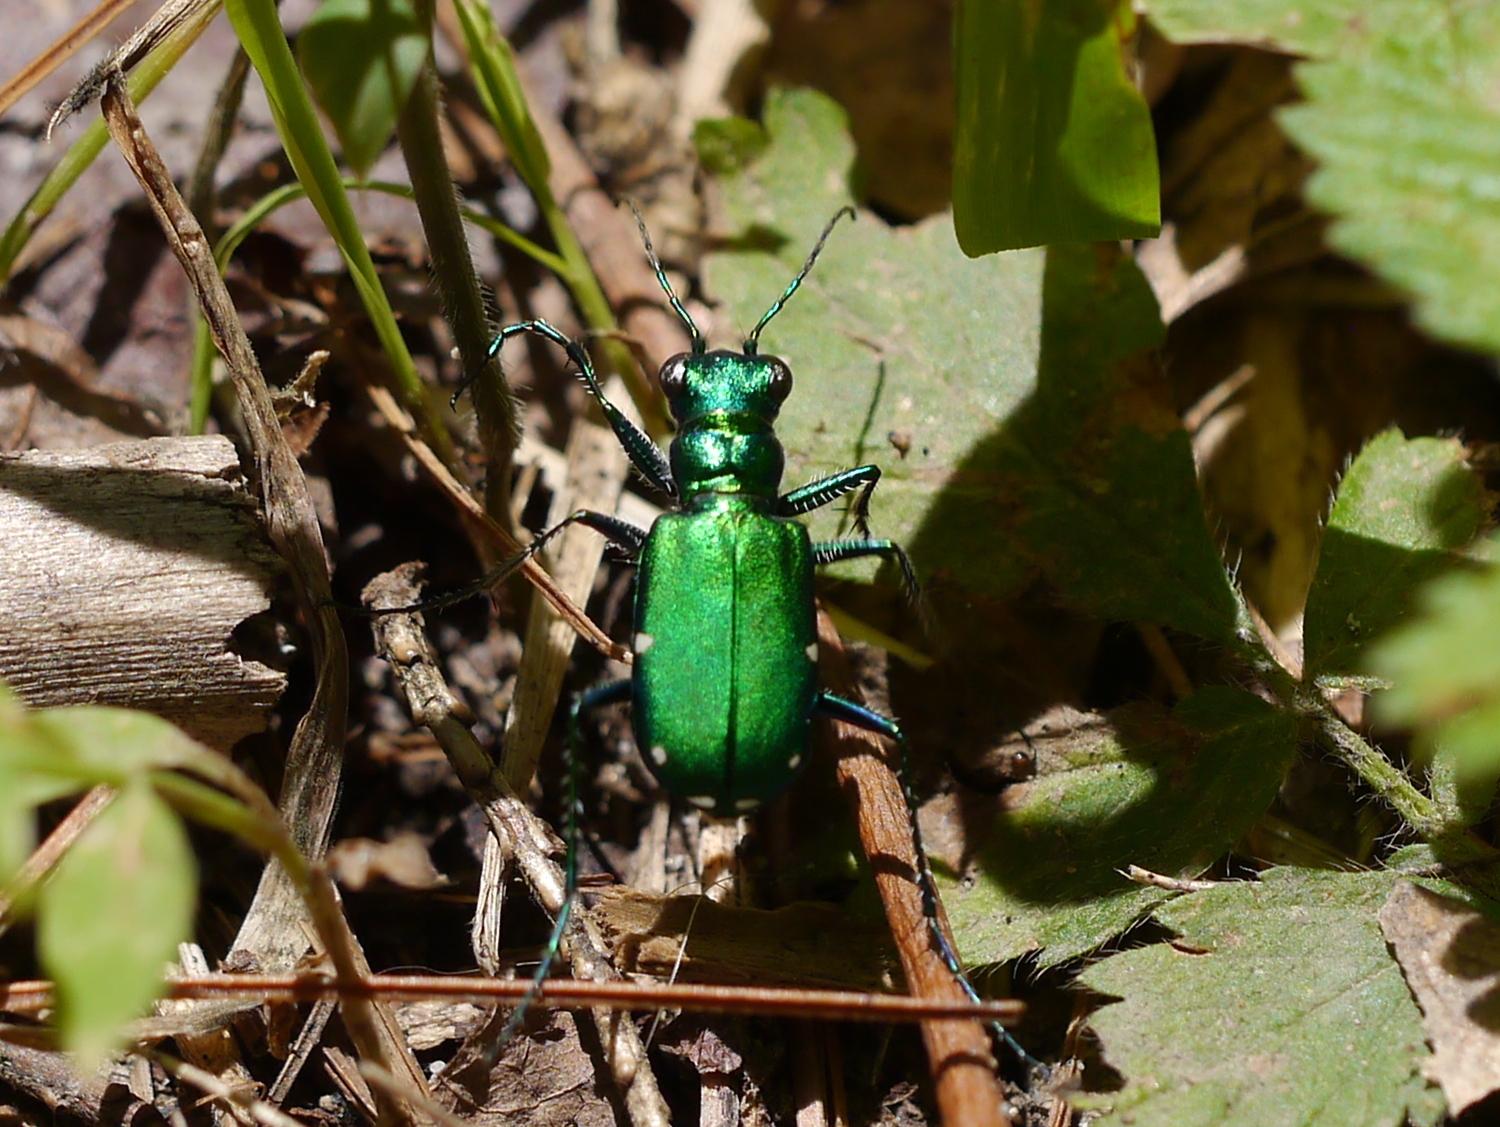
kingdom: Animalia
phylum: Arthropoda
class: Insecta
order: Coleoptera
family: Carabidae
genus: Cicindela
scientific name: Cicindela sexguttata
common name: Six-spotted tiger beetle
